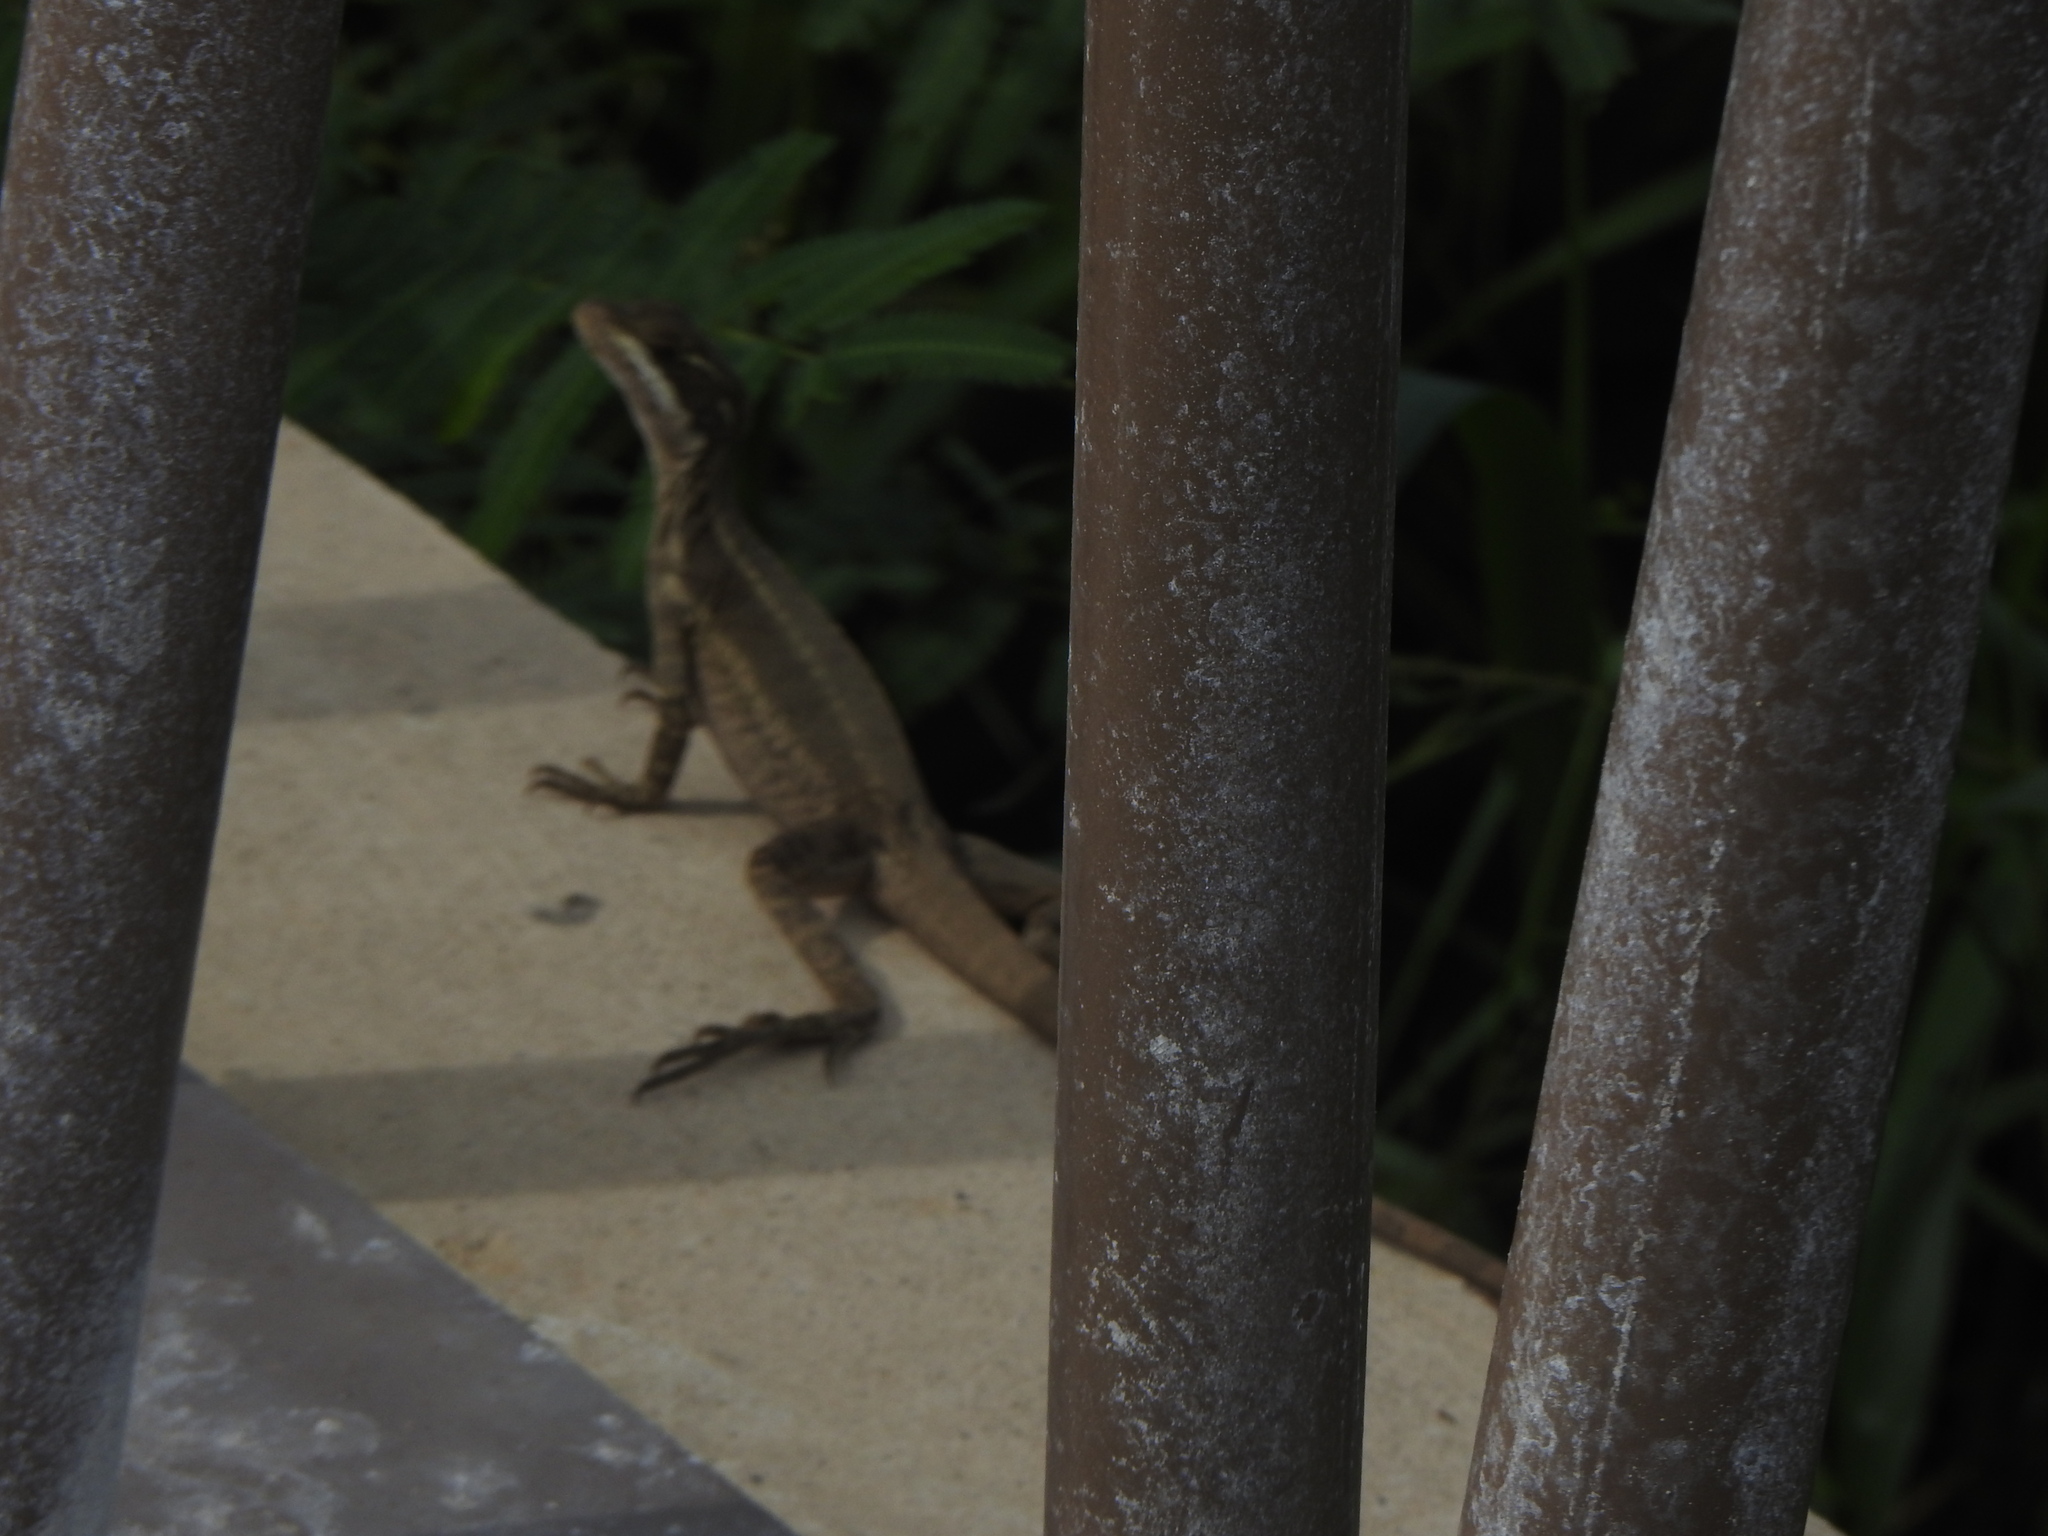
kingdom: Animalia
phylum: Chordata
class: Squamata
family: Corytophanidae
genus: Basiliscus
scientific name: Basiliscus basiliscus
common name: Common basilisk
